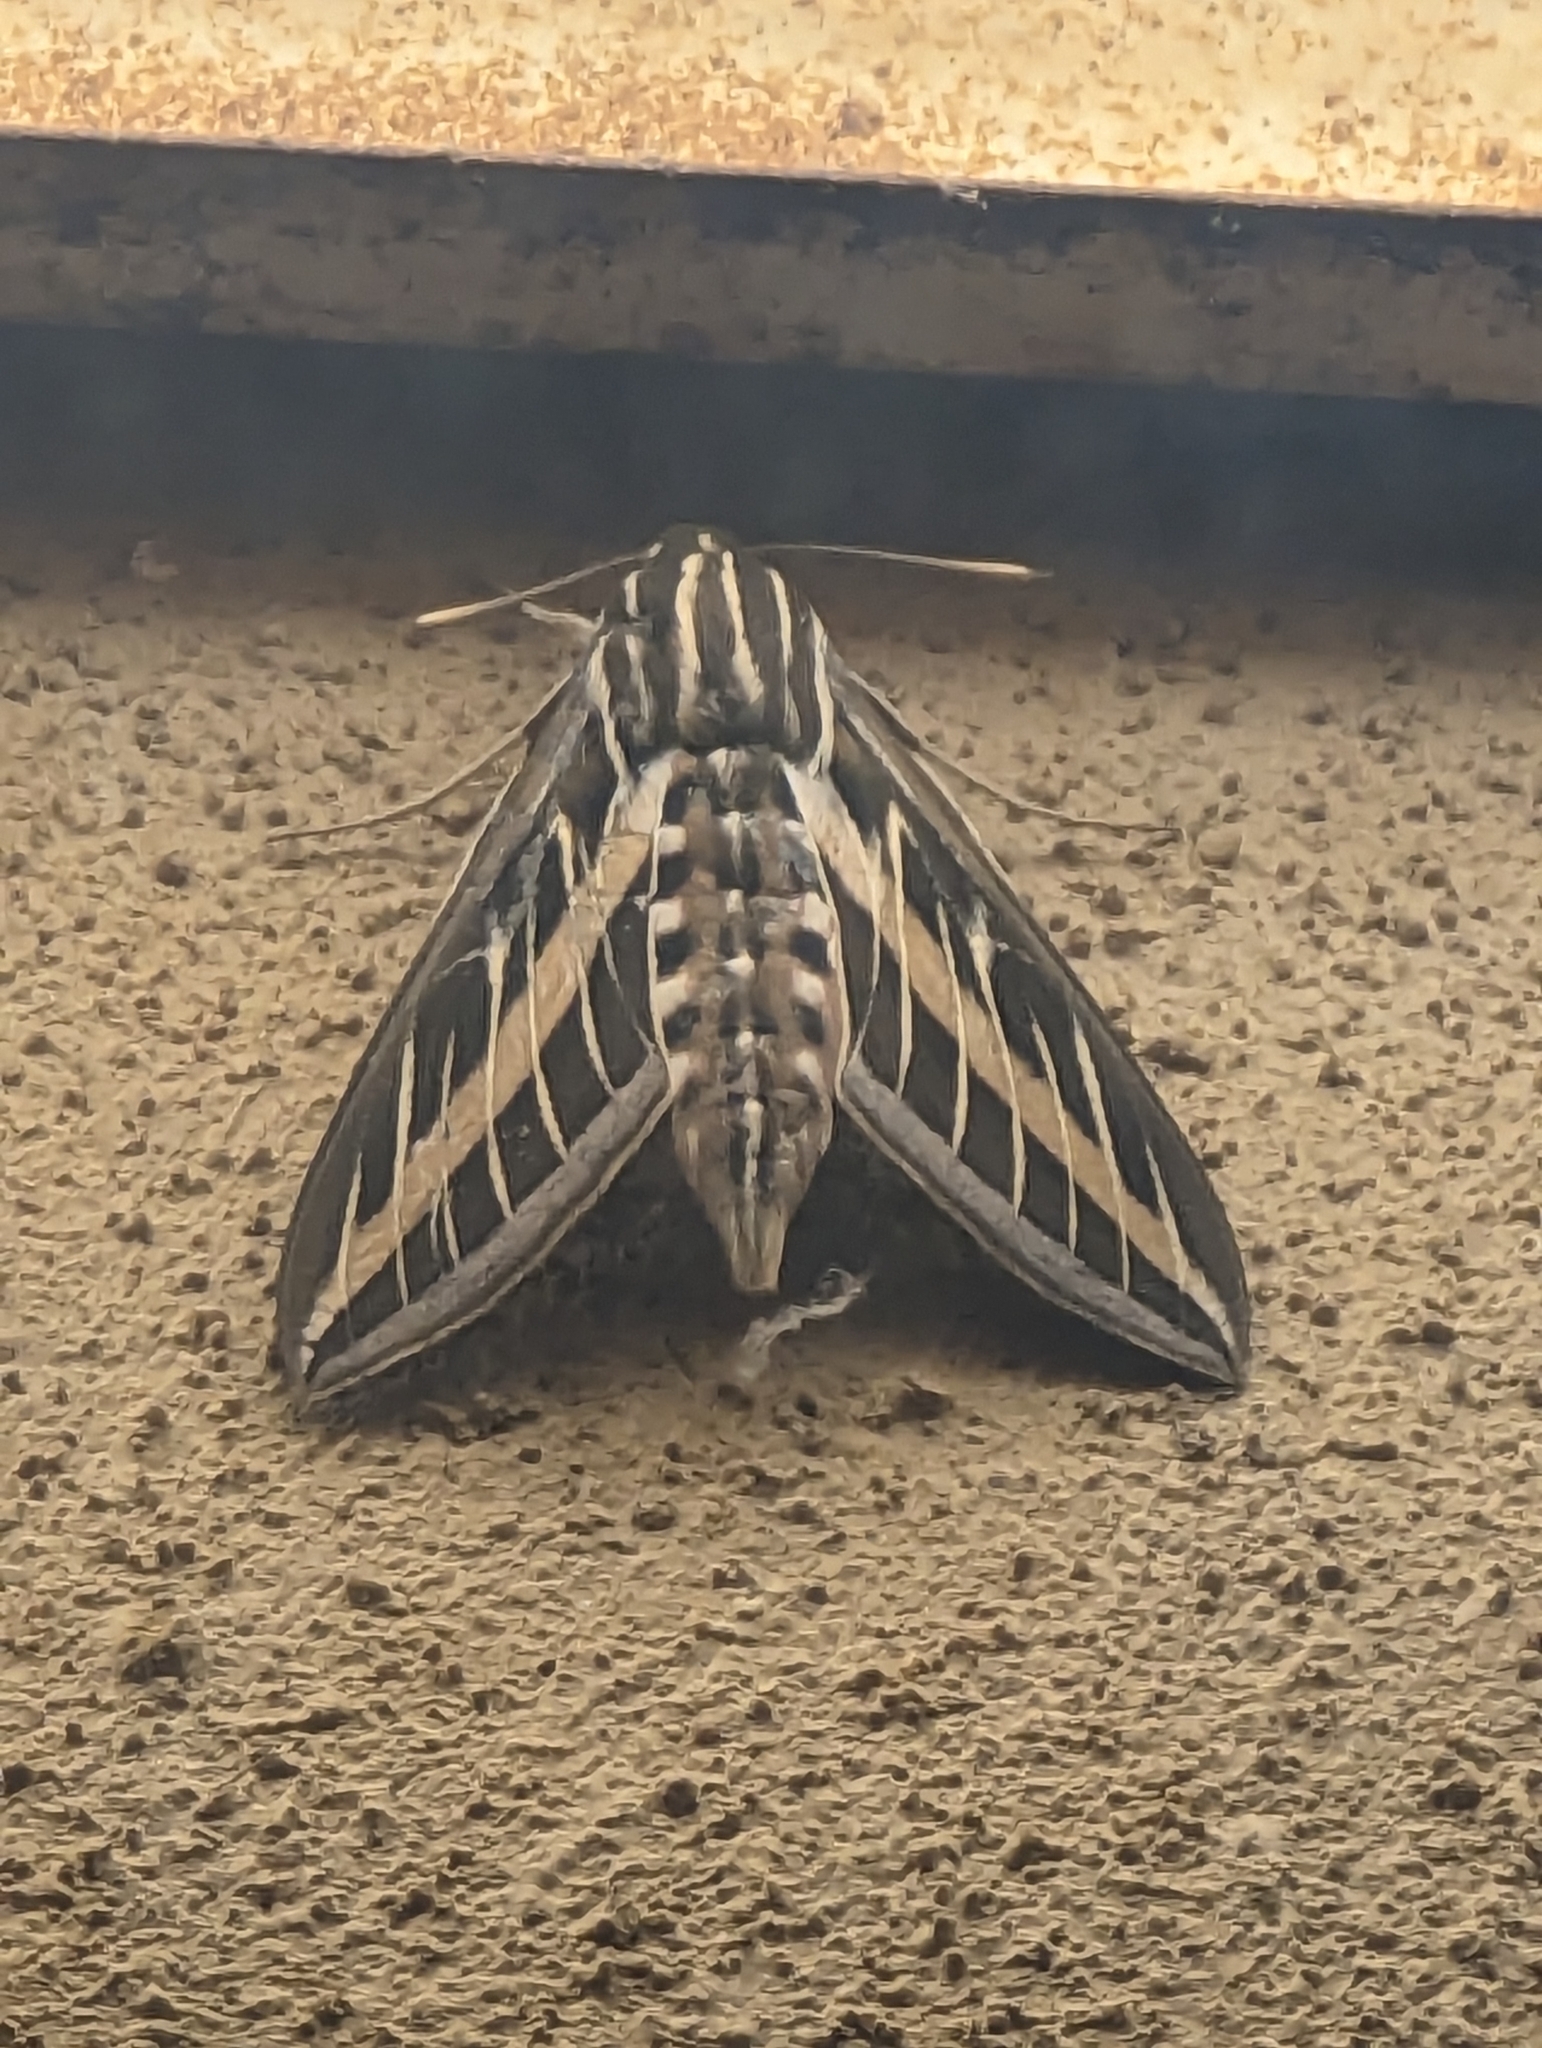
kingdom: Animalia
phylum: Arthropoda
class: Insecta
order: Lepidoptera
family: Sphingidae
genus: Hyles
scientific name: Hyles lineata
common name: White-lined sphinx
